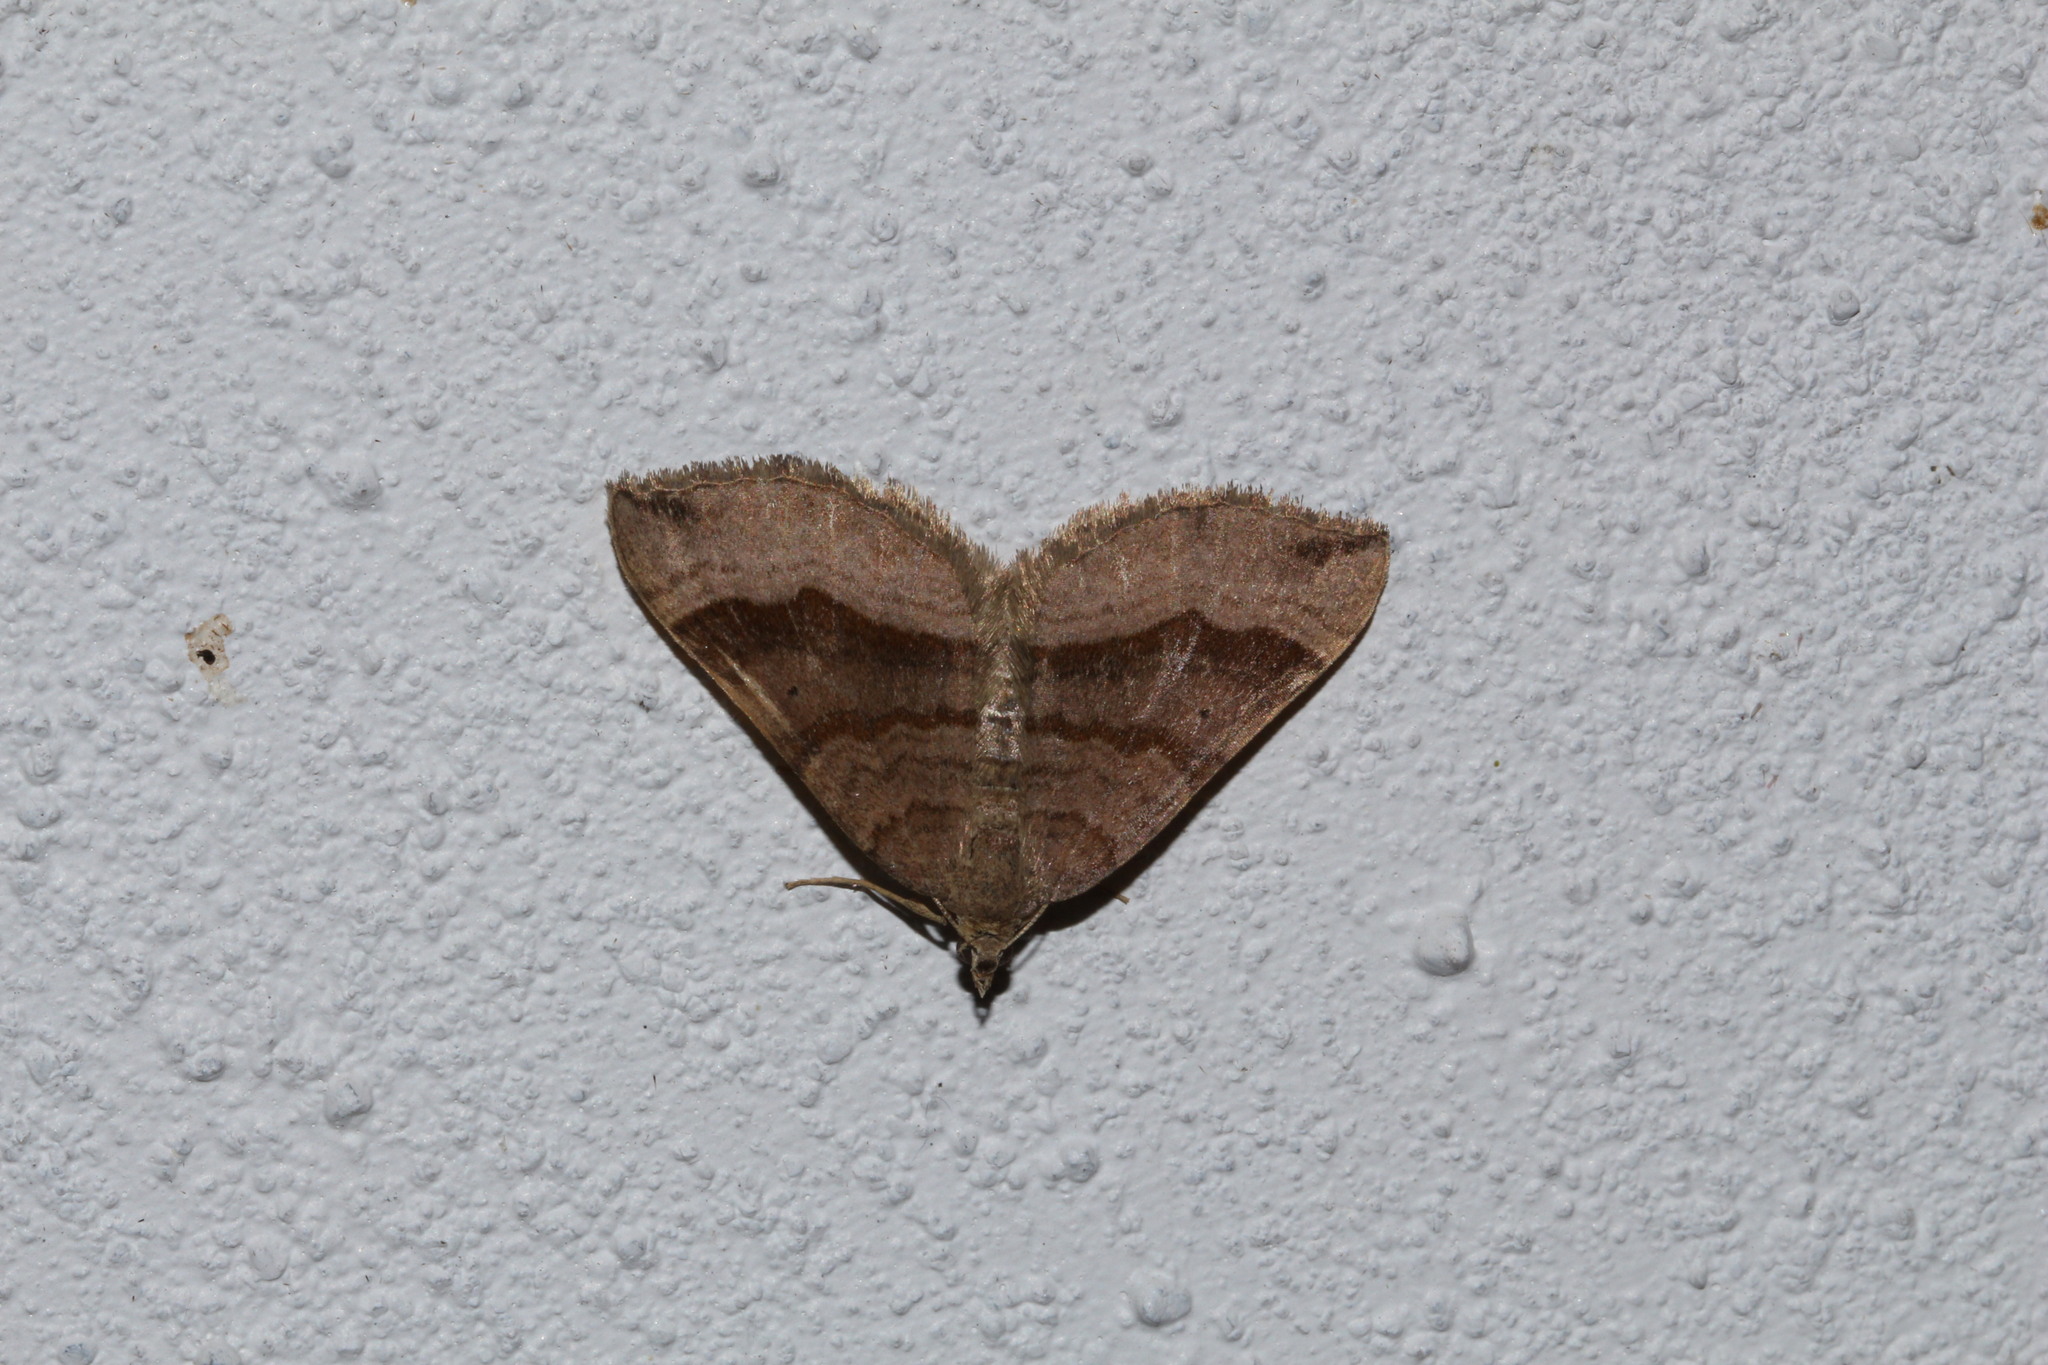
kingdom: Animalia
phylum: Arthropoda
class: Insecta
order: Lepidoptera
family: Geometridae
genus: Scotopteryx
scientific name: Scotopteryx chenopodiata
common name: Shaded broad-bar
